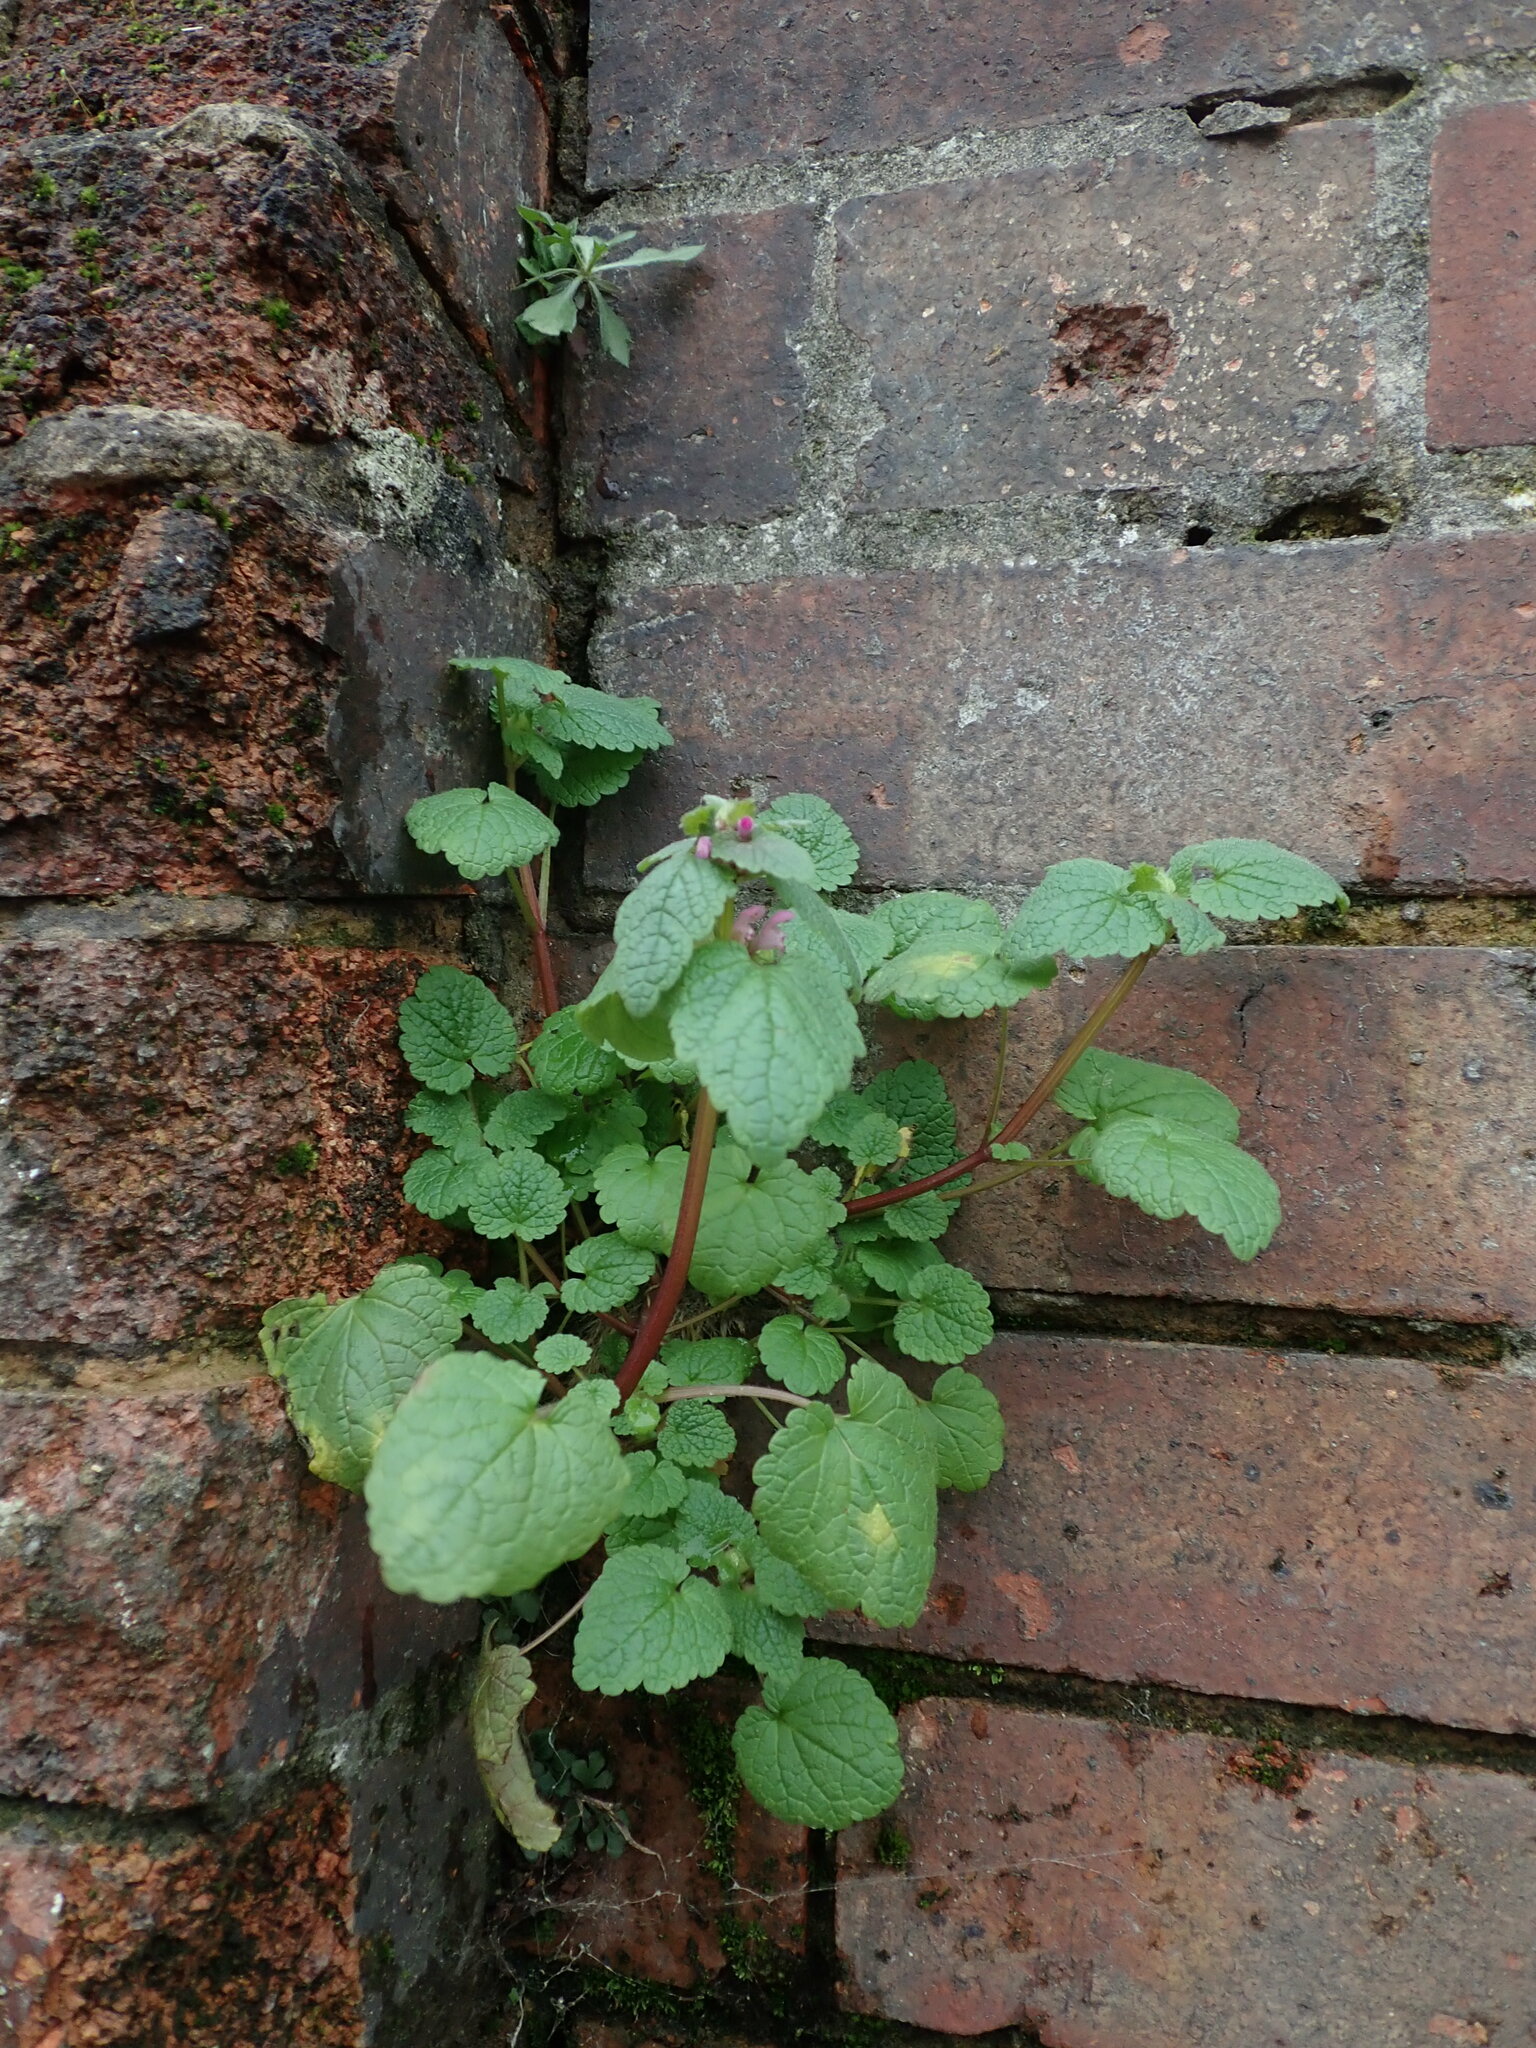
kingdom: Plantae
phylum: Tracheophyta
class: Magnoliopsida
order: Lamiales
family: Lamiaceae
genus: Lamium
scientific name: Lamium purpureum
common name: Red dead-nettle
